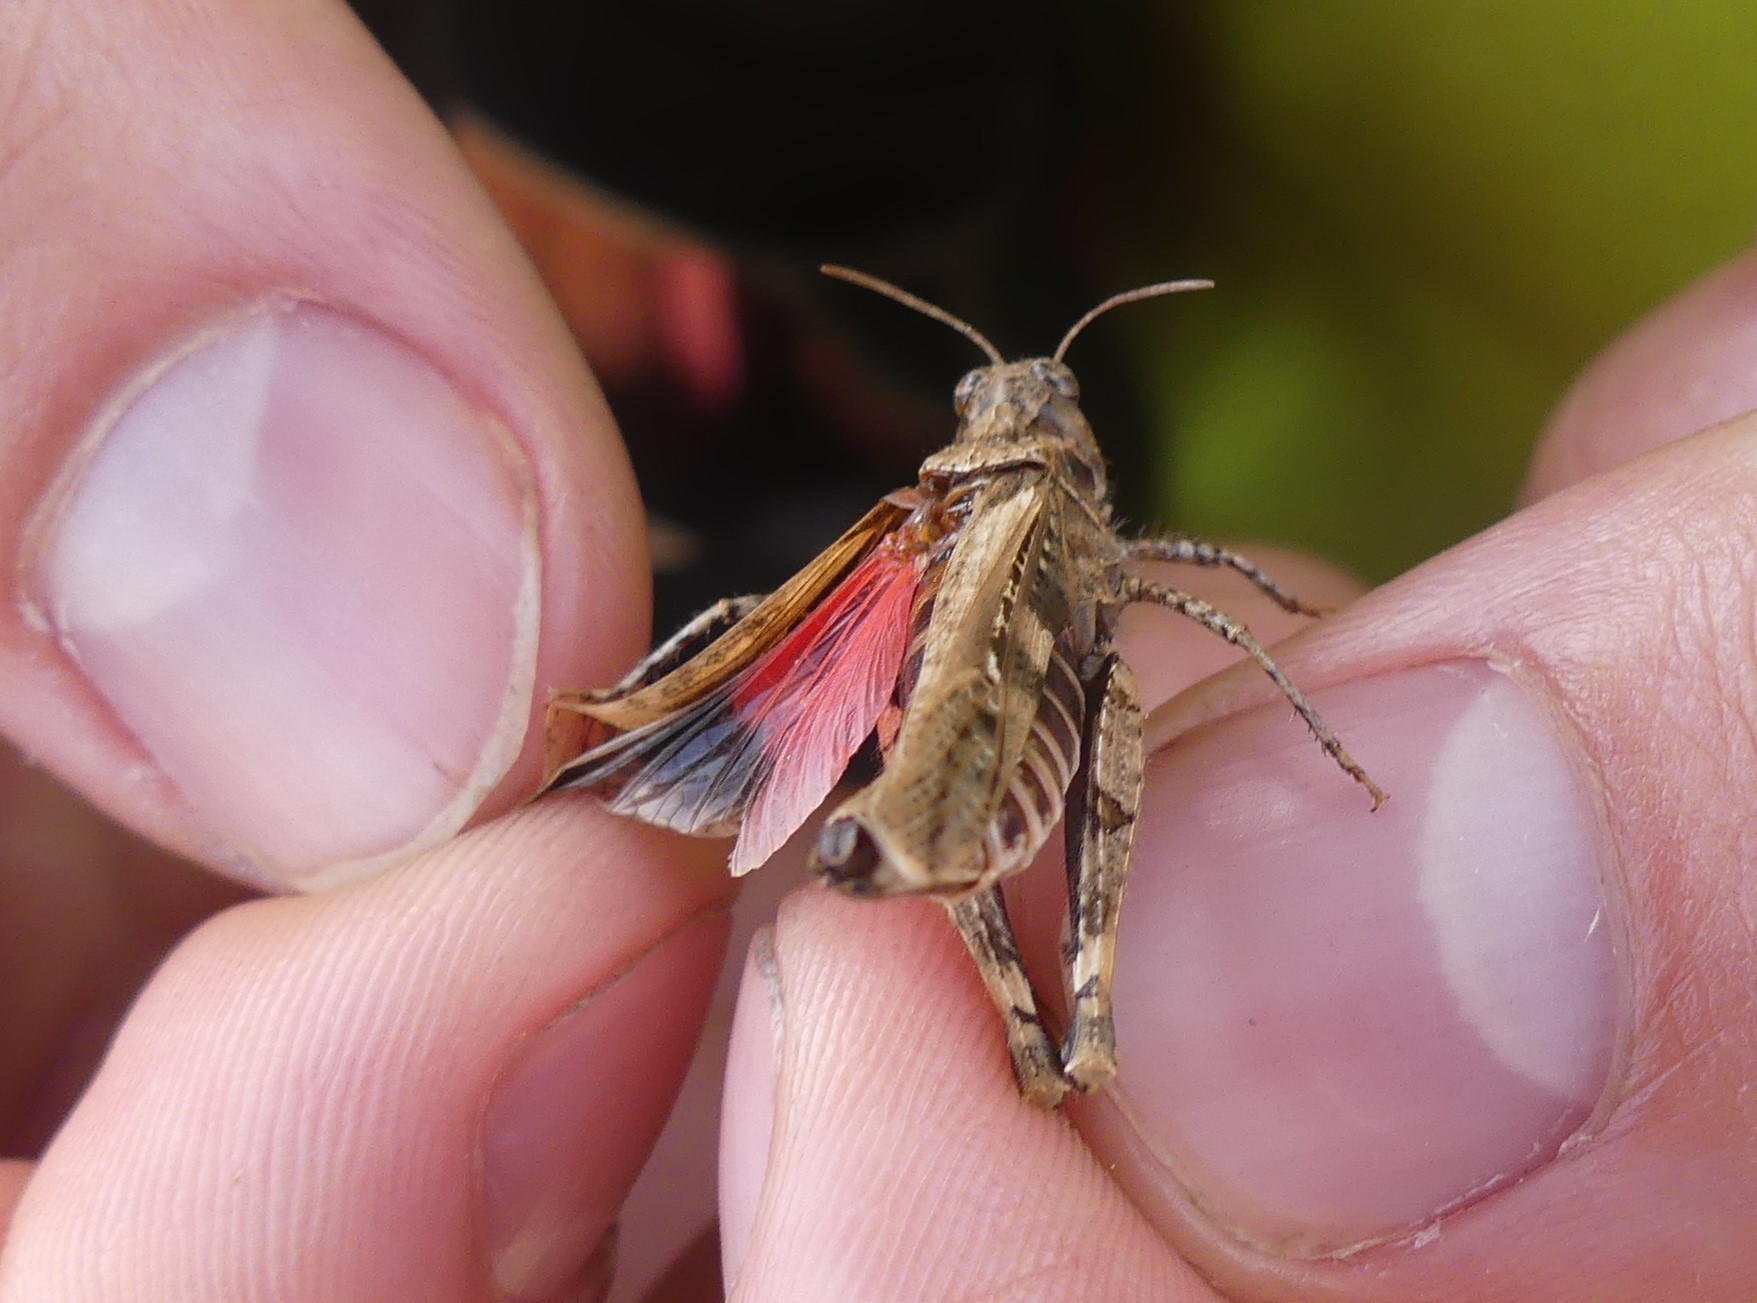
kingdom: Animalia
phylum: Arthropoda
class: Insecta
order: Orthoptera
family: Acrididae
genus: Acrotylus
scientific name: Acrotylus fischeri
